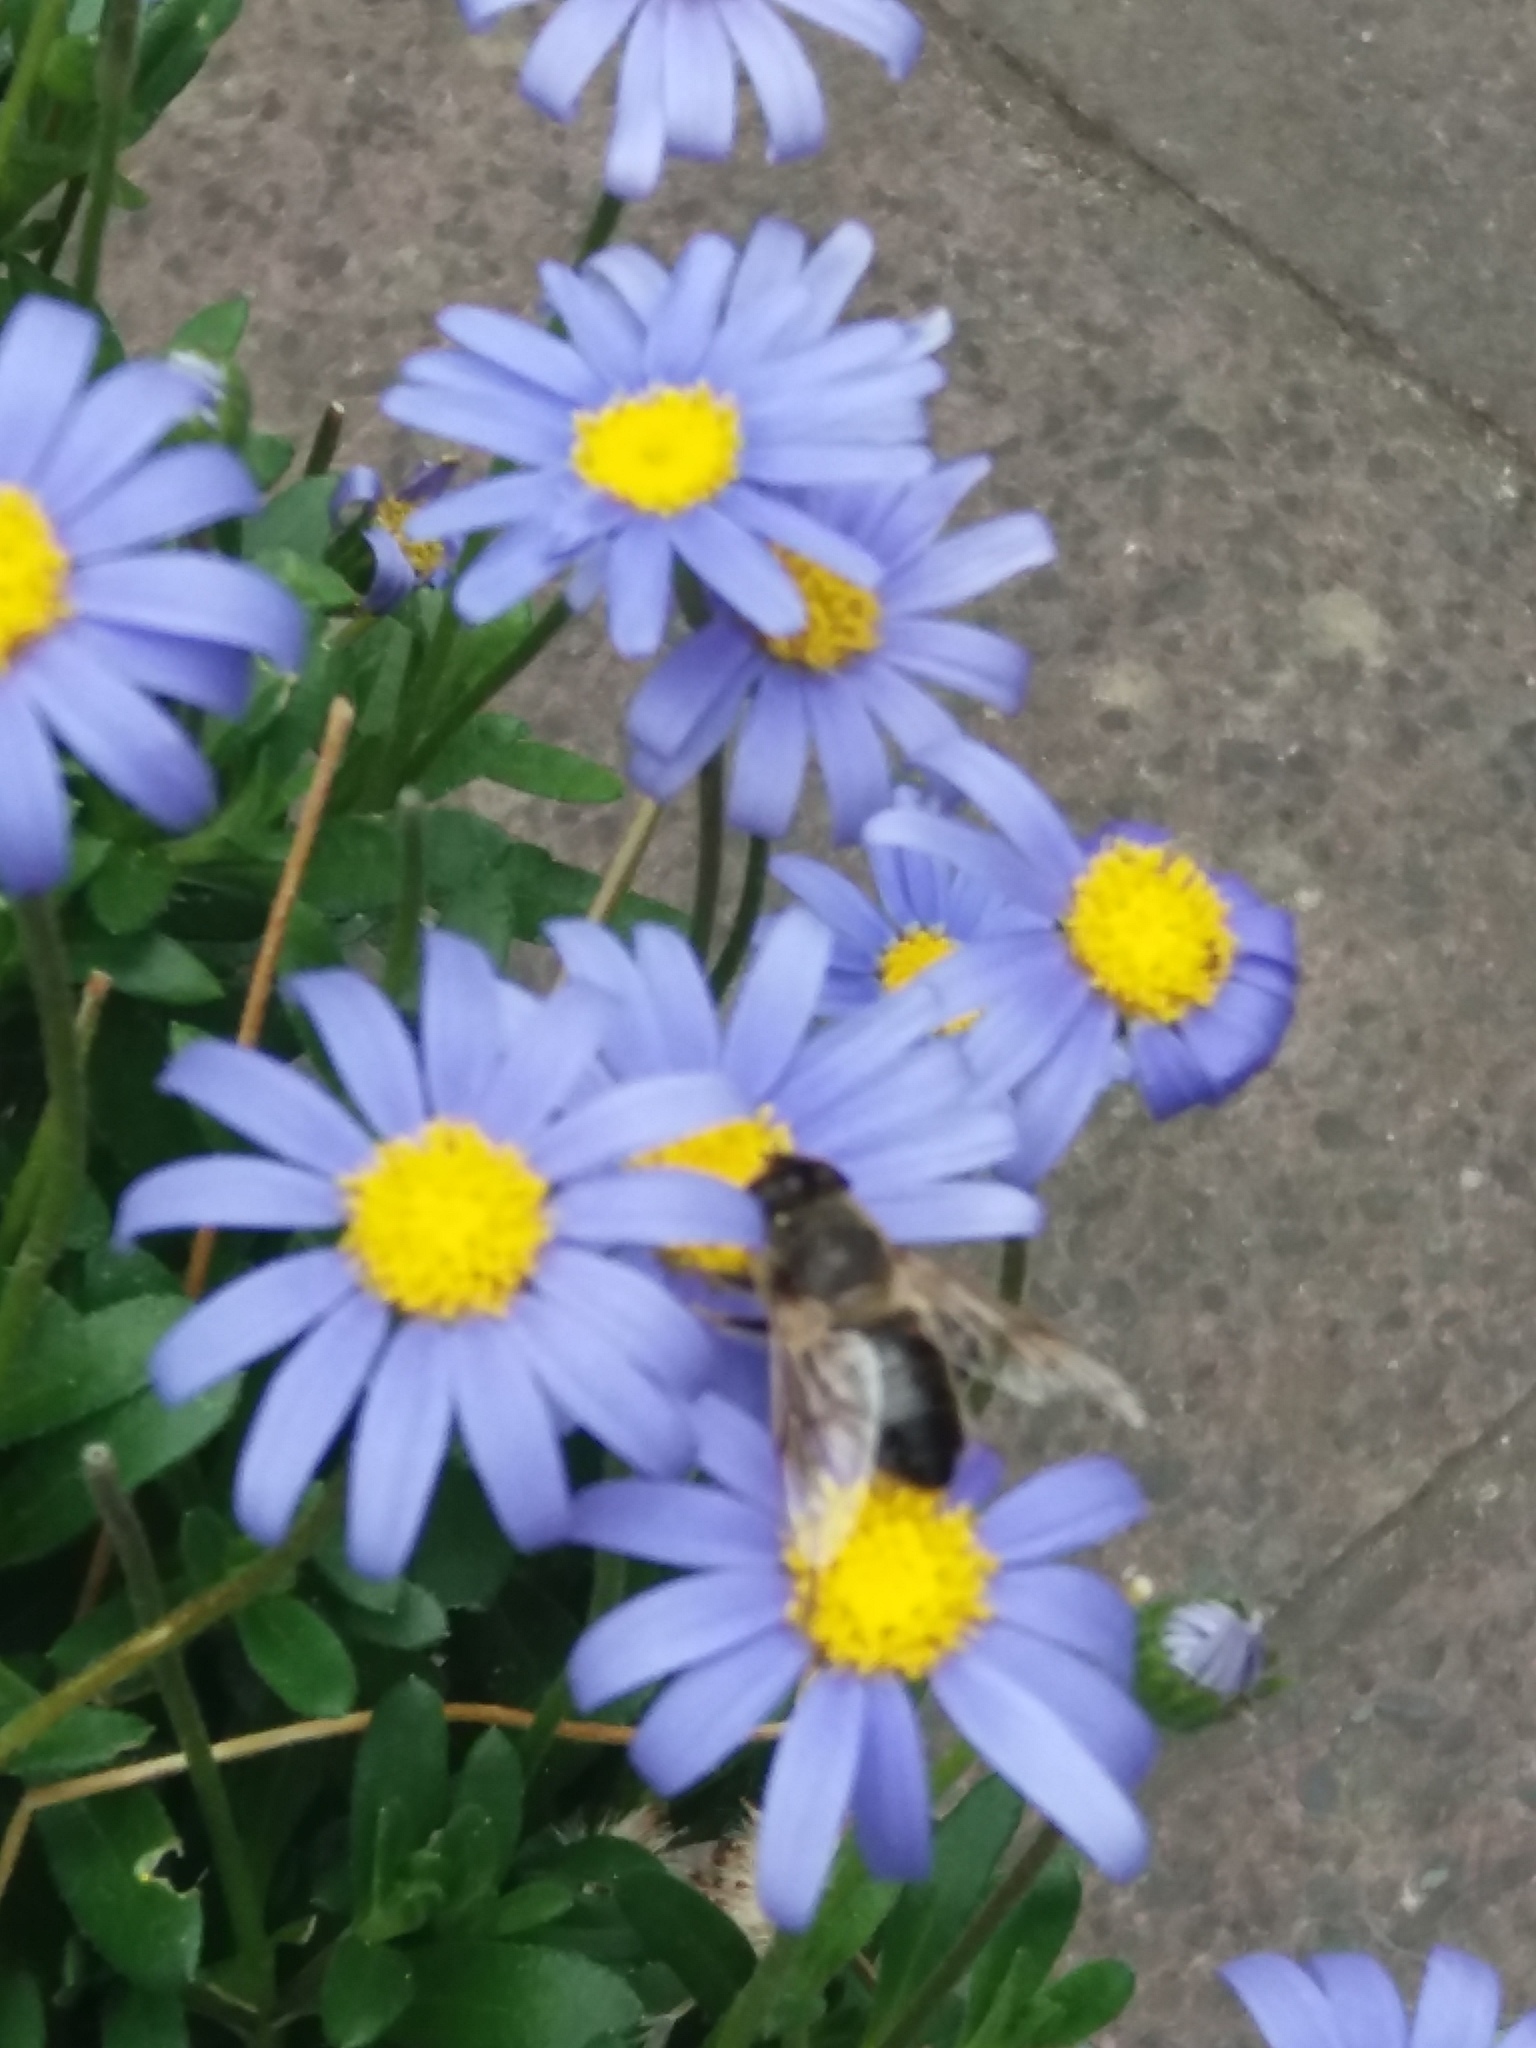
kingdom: Animalia
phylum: Arthropoda
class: Insecta
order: Diptera
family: Syrphidae
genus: Eristalis
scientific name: Eristalis tenax
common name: Drone fly
